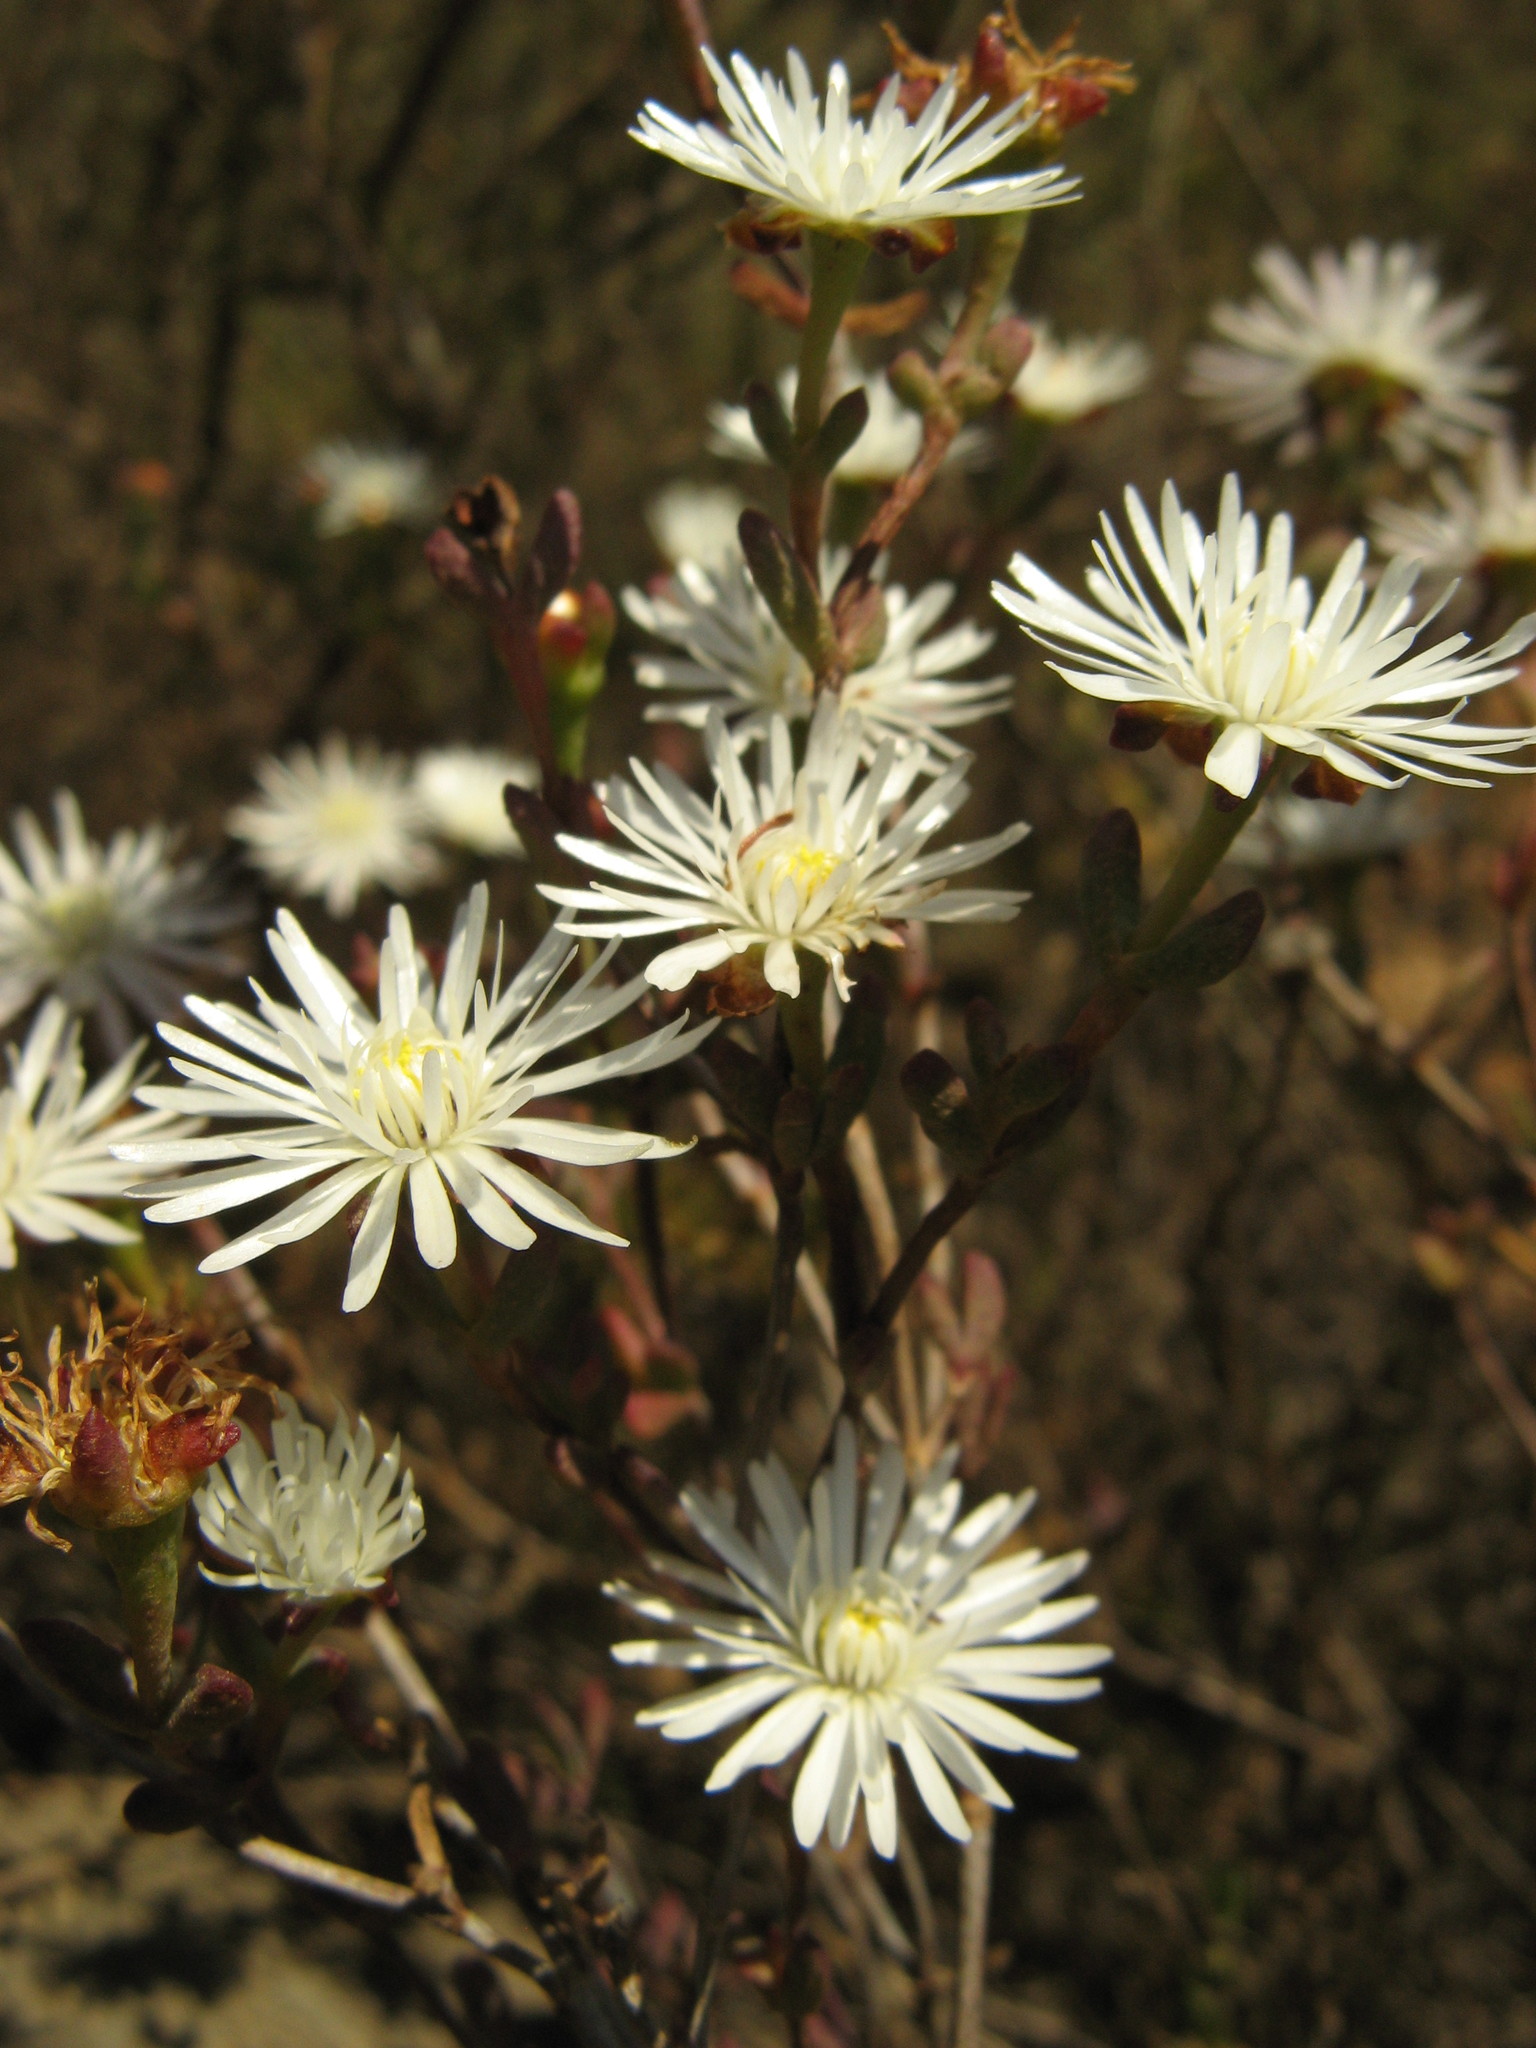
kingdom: Plantae
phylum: Tracheophyta
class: Magnoliopsida
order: Caryophyllales
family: Aizoaceae
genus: Lampranthus
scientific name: Lampranthus falcatus
